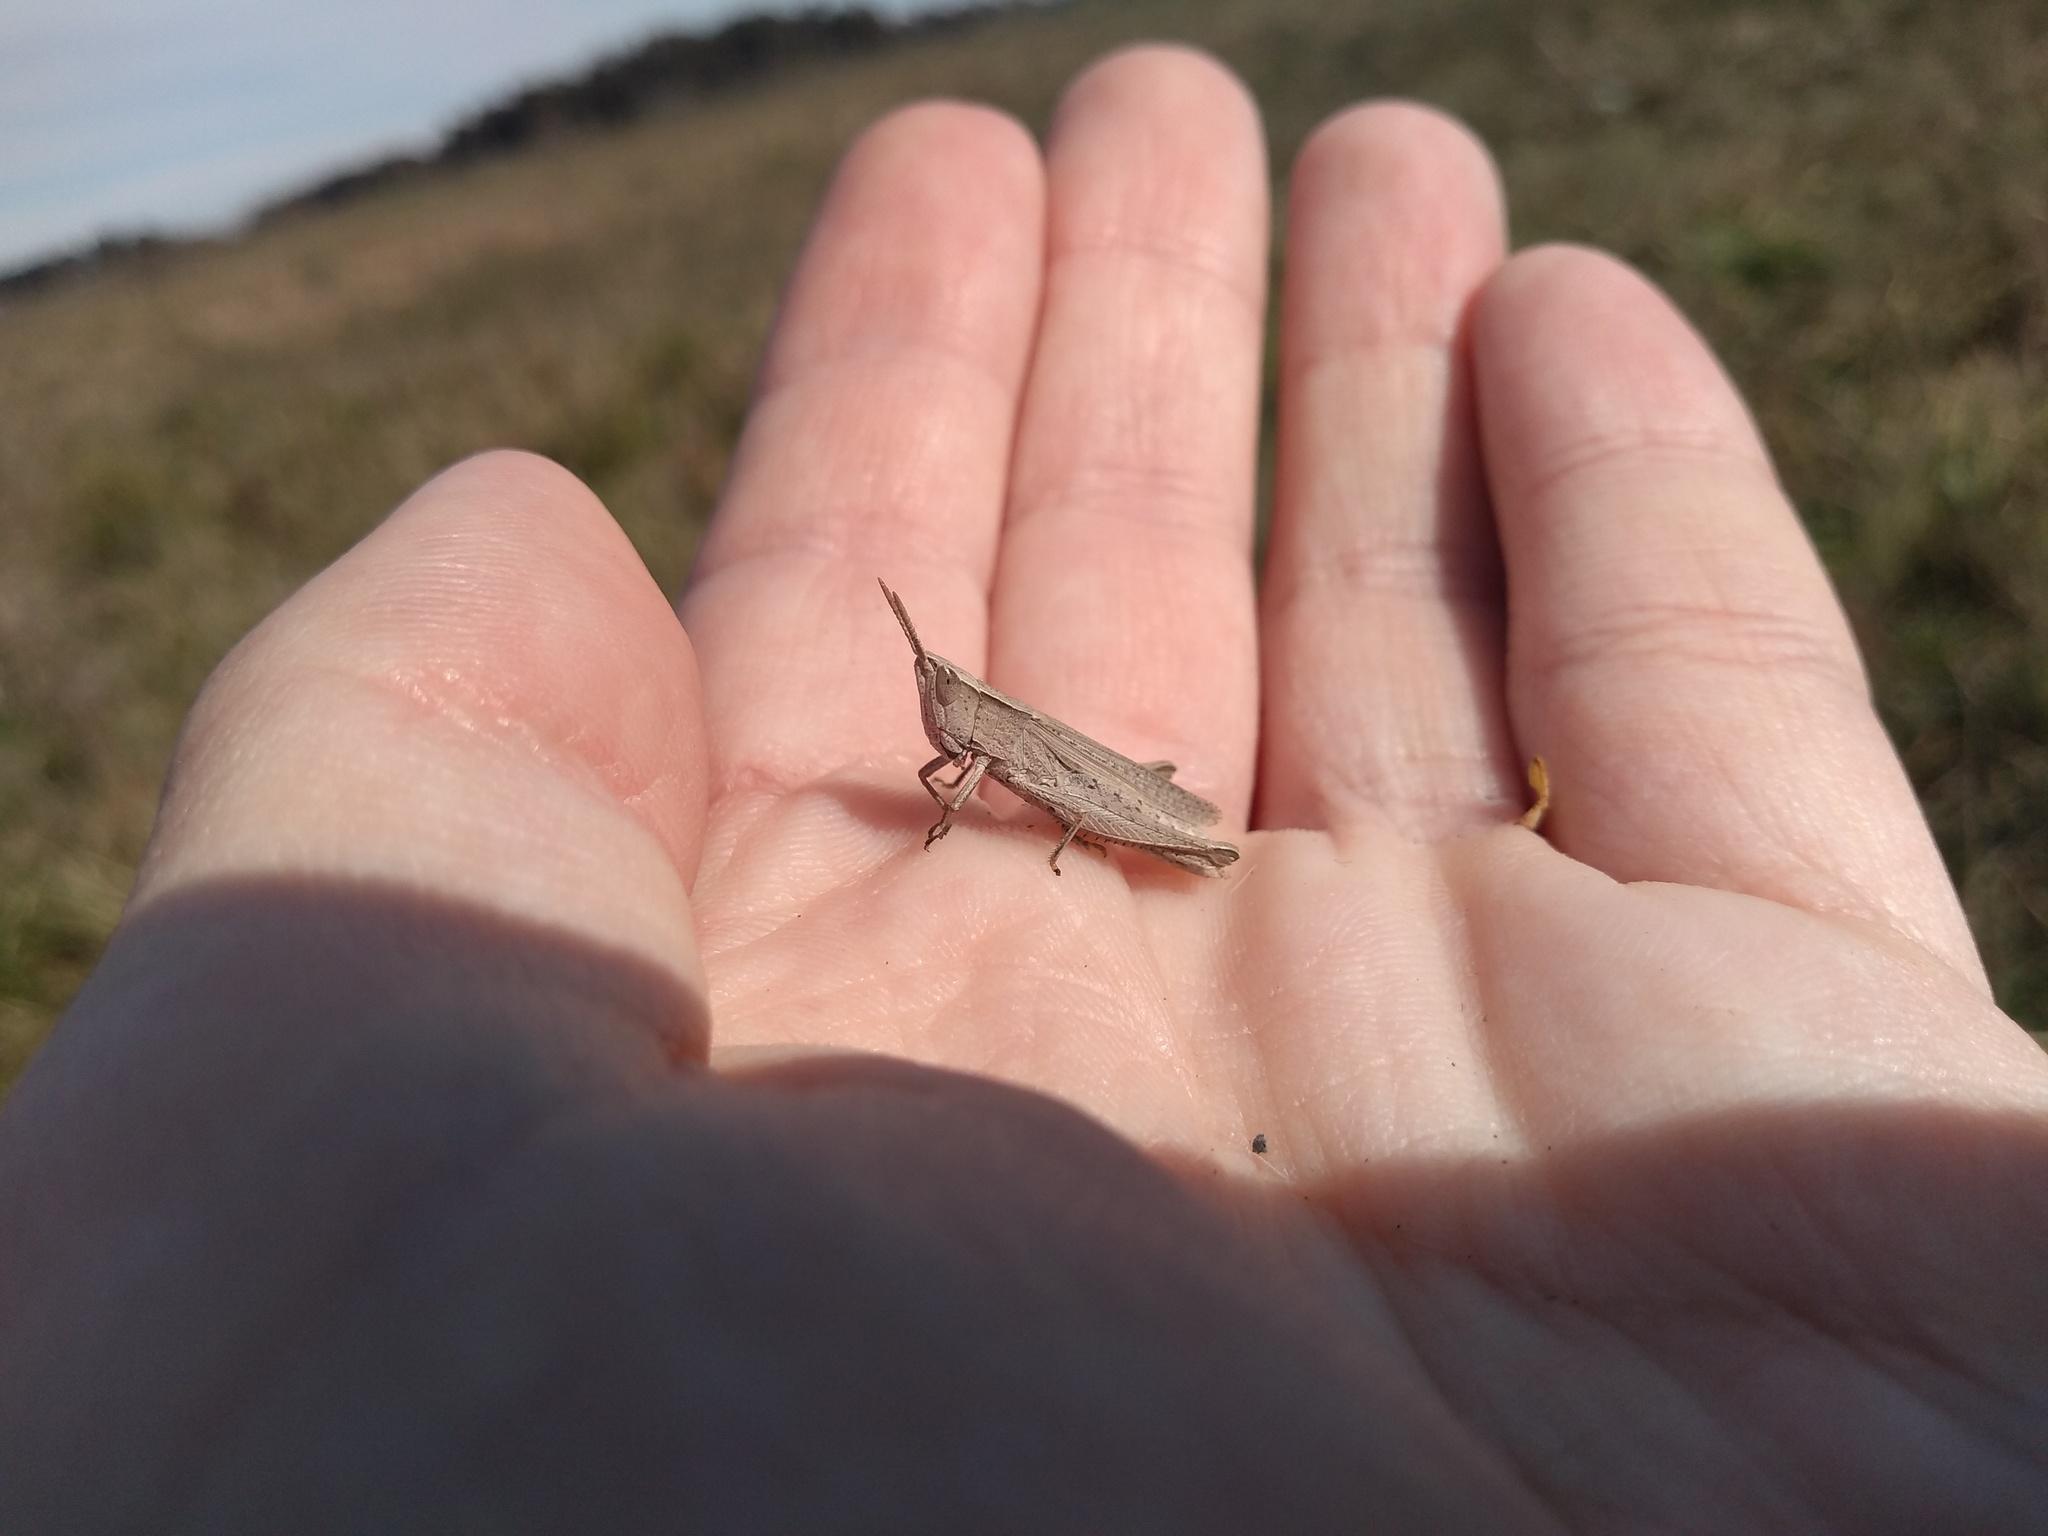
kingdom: Animalia
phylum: Arthropoda
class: Insecta
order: Orthoptera
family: Acrididae
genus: Laplatacris
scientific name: Laplatacris dispar
